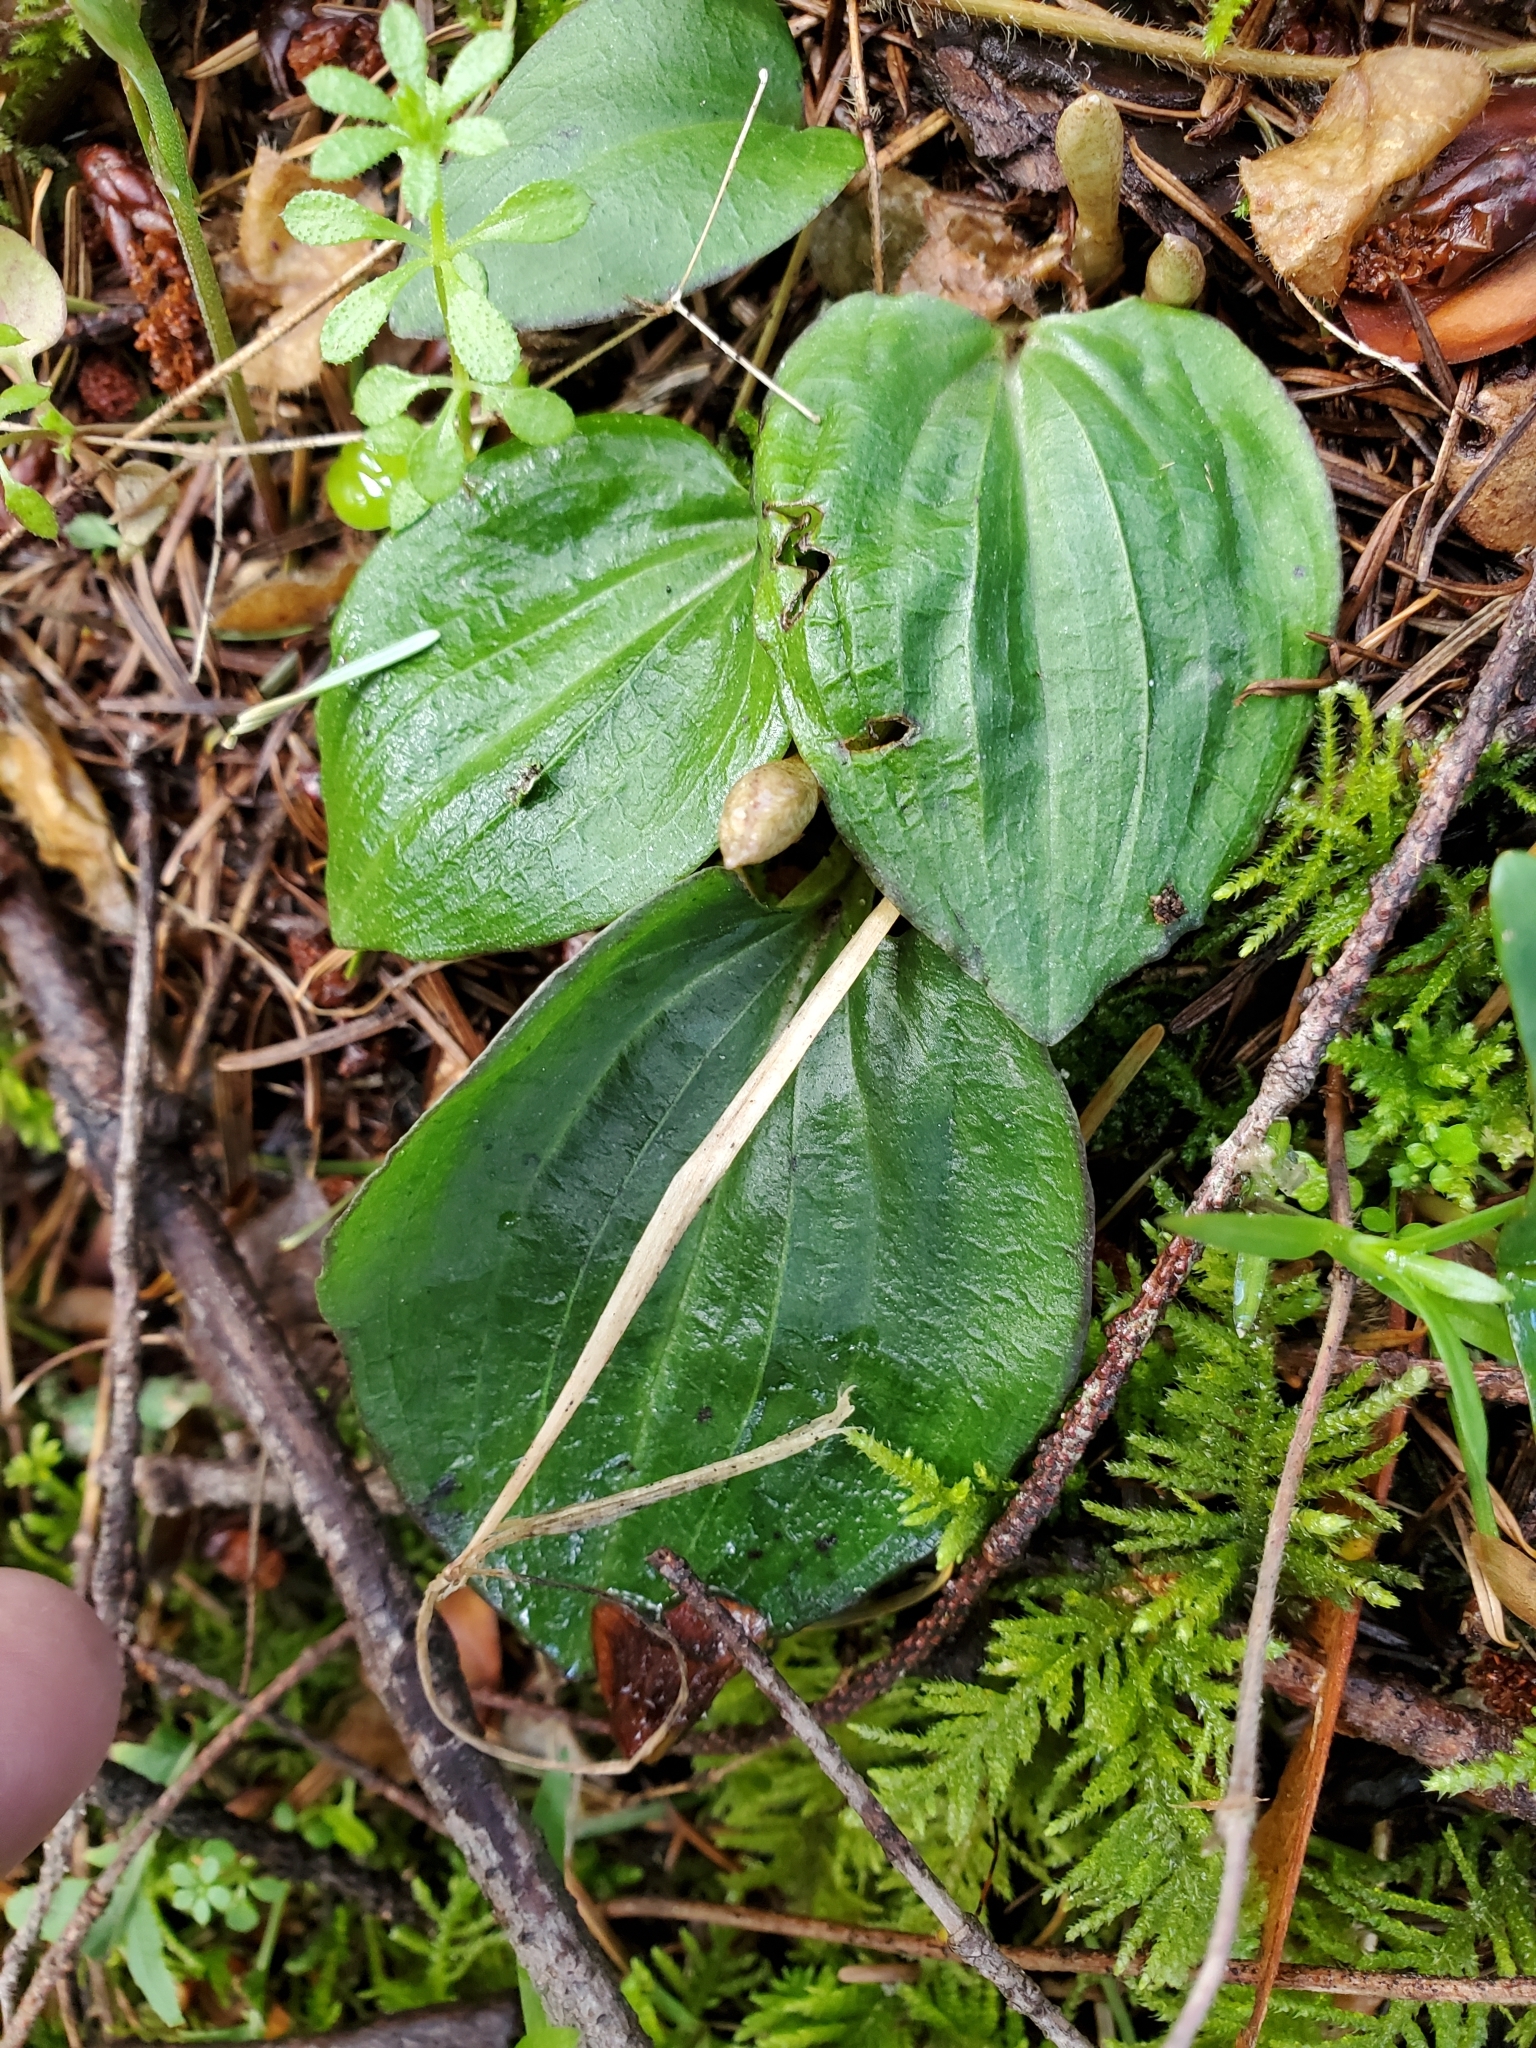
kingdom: Plantae
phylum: Tracheophyta
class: Liliopsida
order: Asparagales
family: Orchidaceae
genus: Calypso
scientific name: Calypso bulbosa
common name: Calypso
